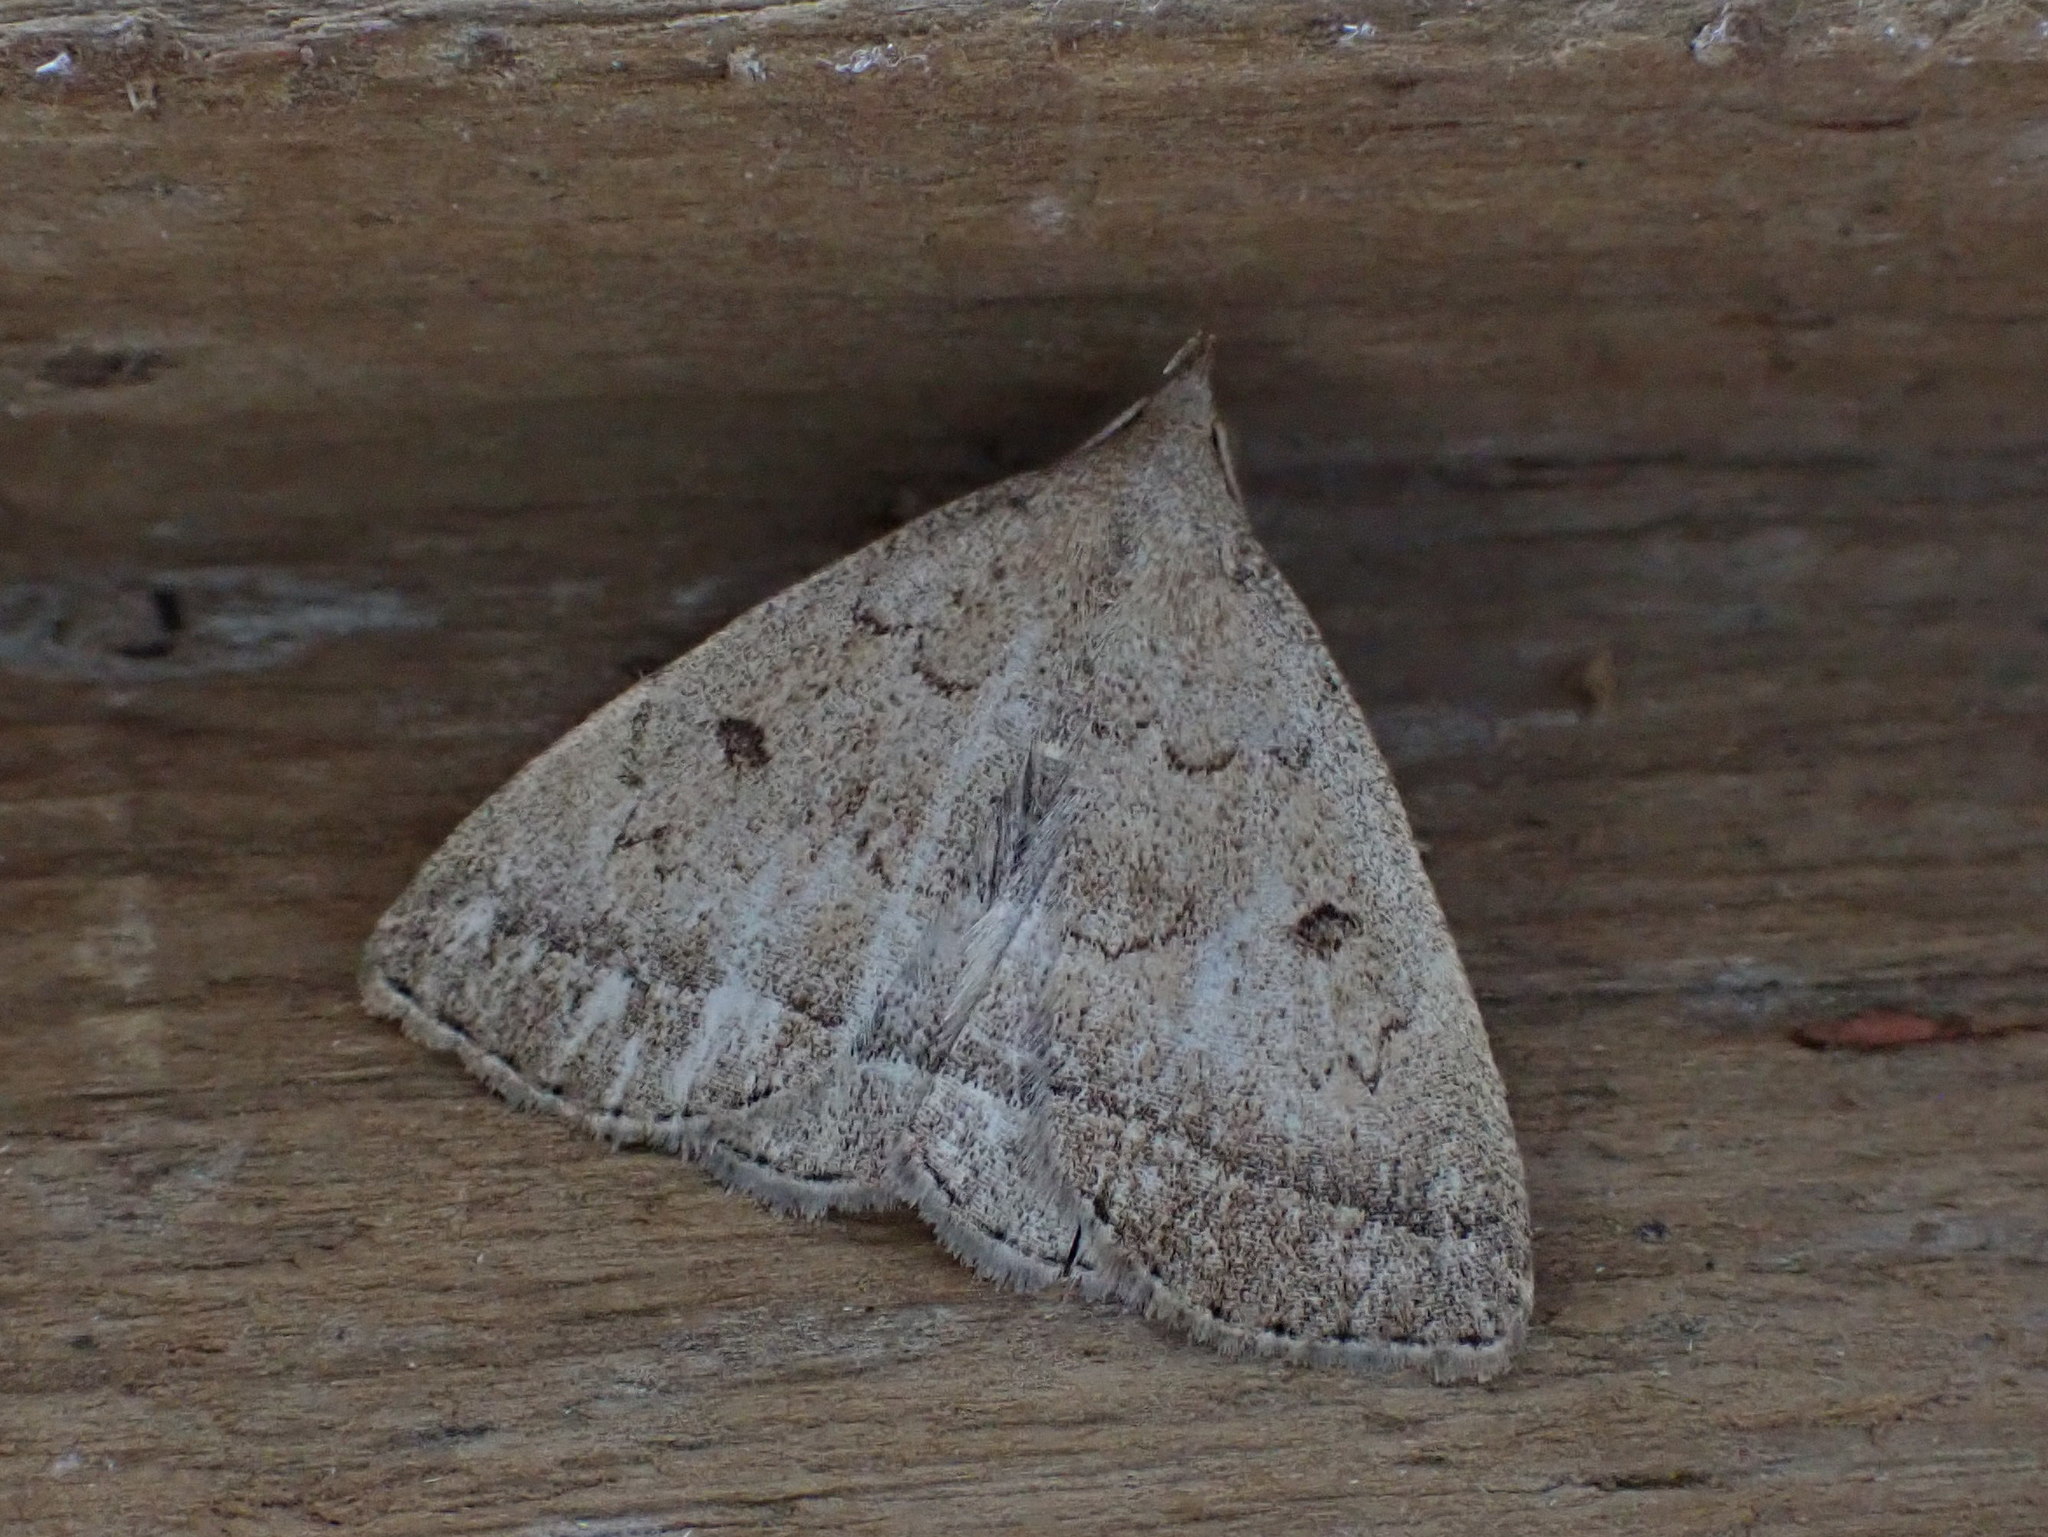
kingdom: Animalia
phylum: Arthropoda
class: Insecta
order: Lepidoptera
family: Erebidae
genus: Zanclognatha
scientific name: Zanclognatha jacchusalis
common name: Yellowish zanclognatha
